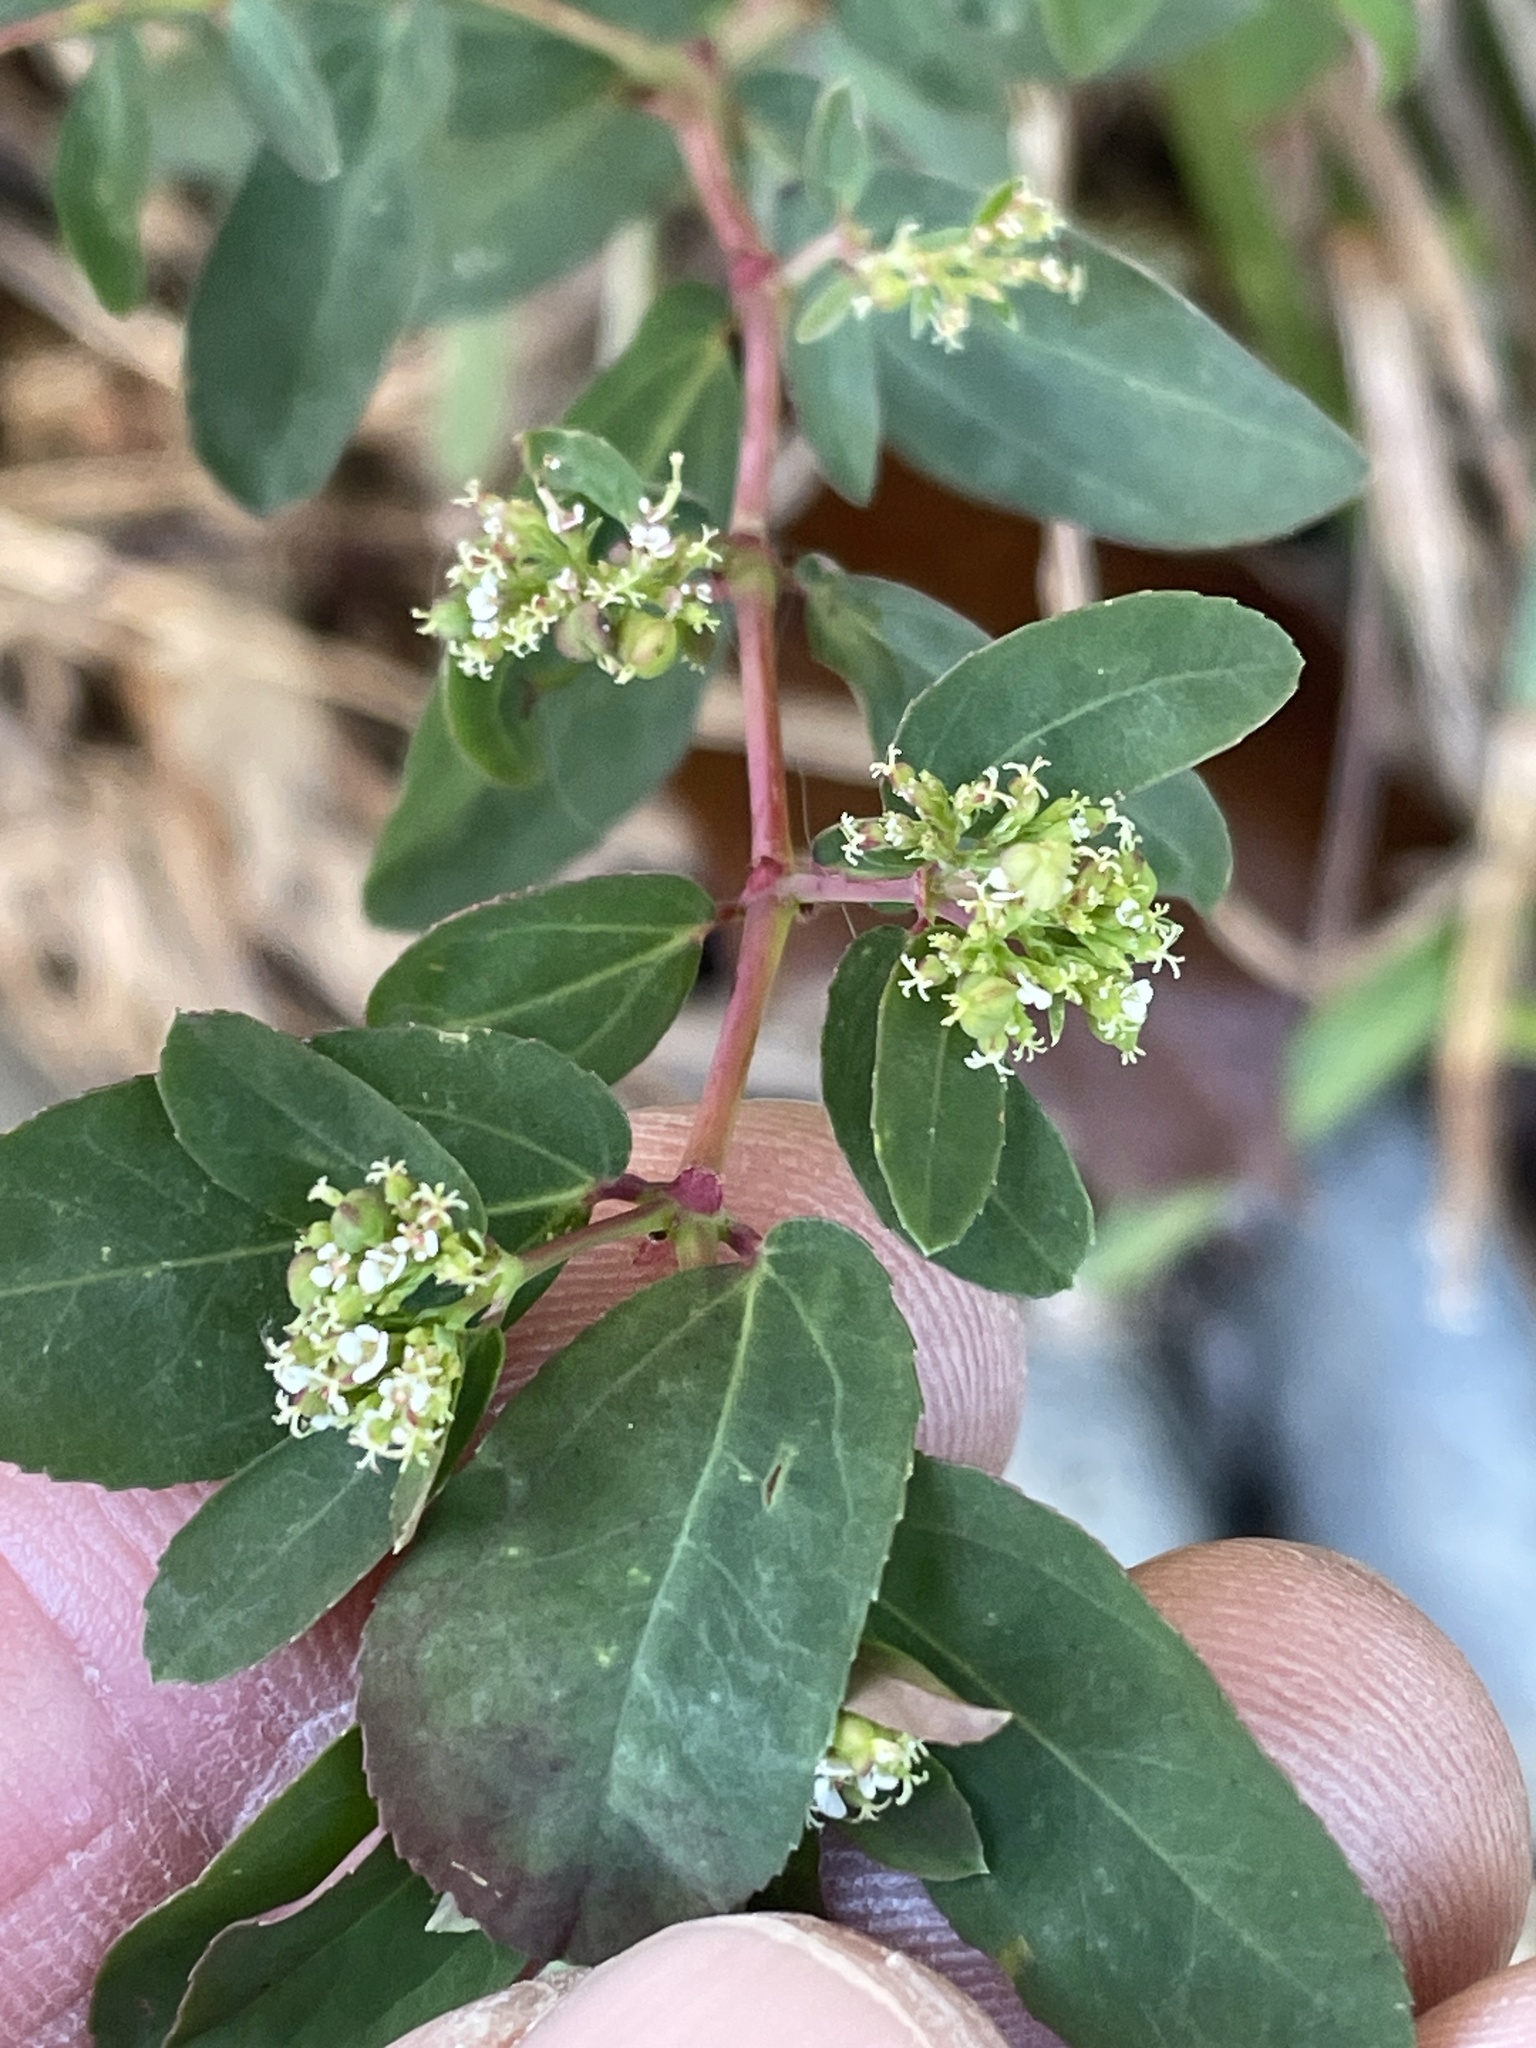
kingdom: Plantae
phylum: Tracheophyta
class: Magnoliopsida
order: Malpighiales
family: Euphorbiaceae
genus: Euphorbia
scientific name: Euphorbia hypericifolia
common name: Graceful sandmat
